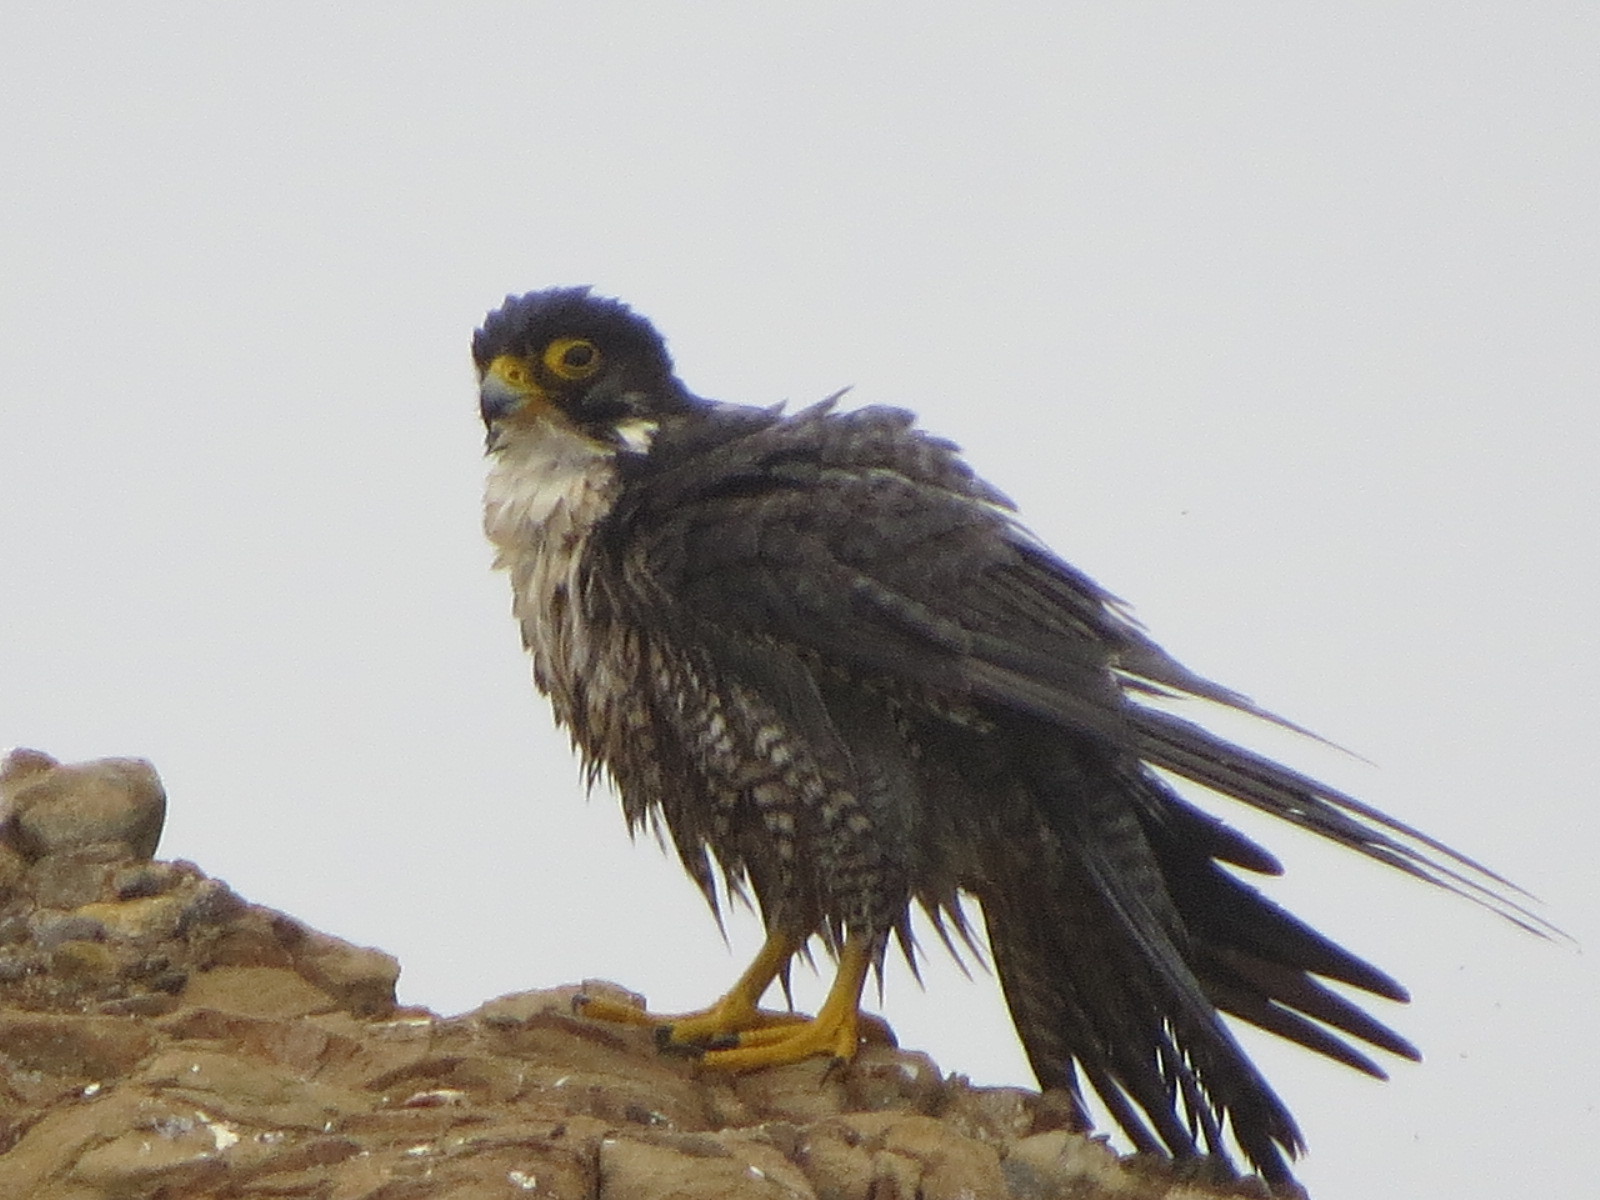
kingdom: Animalia
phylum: Chordata
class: Aves
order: Falconiformes
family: Falconidae
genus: Falco
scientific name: Falco peregrinus
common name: Peregrine falcon
